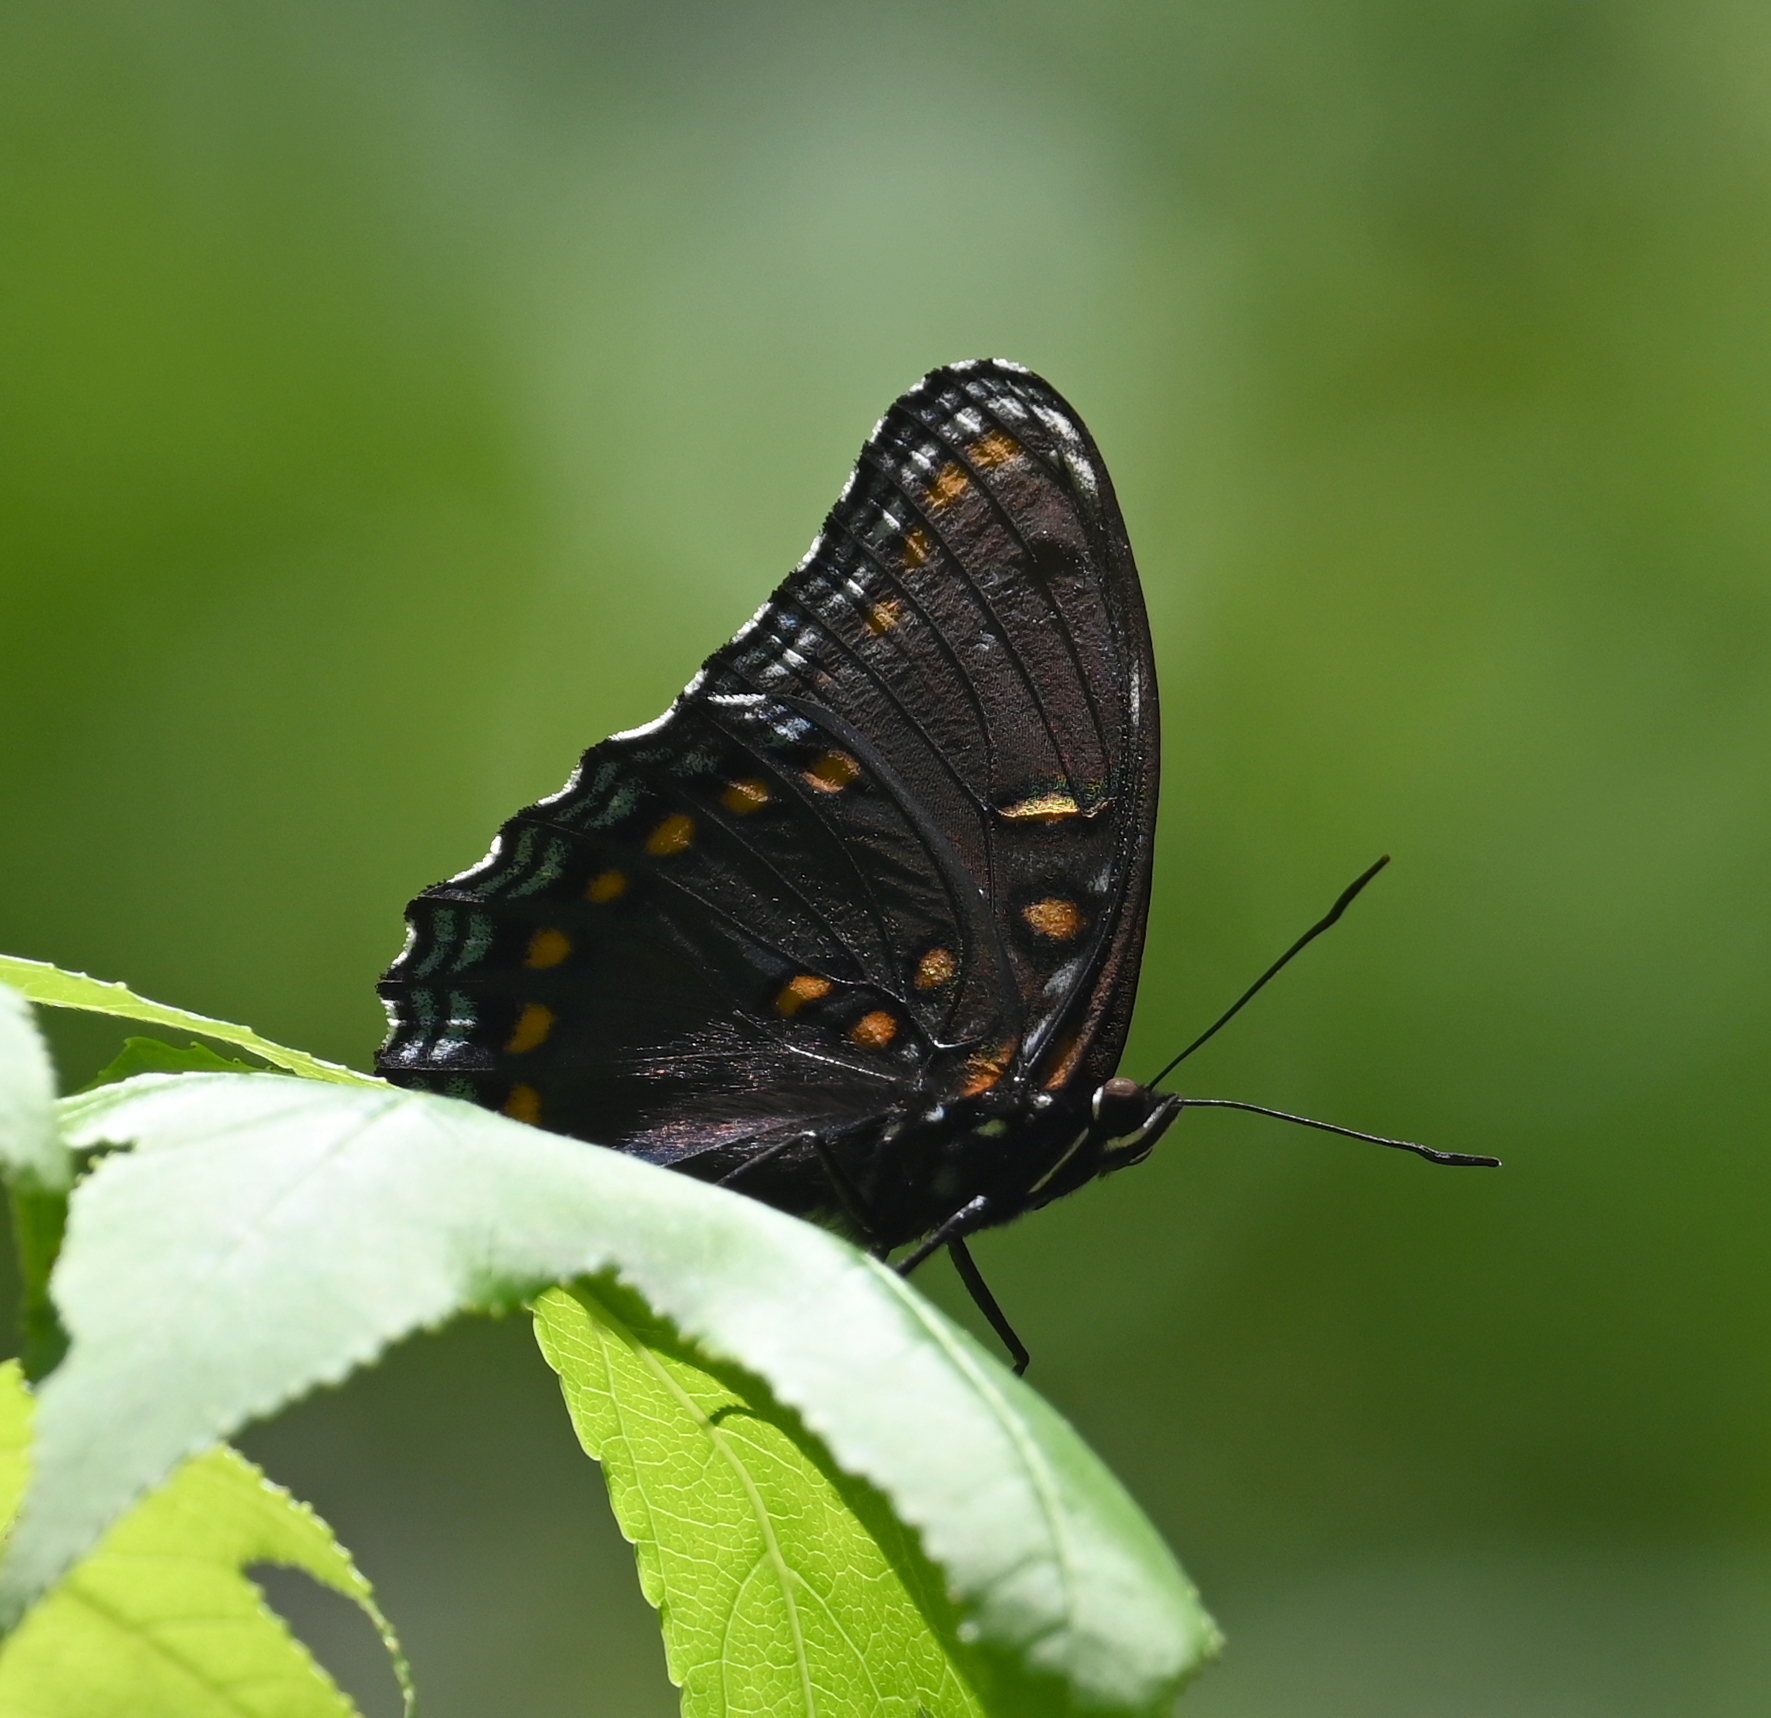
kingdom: Animalia
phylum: Arthropoda
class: Insecta
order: Lepidoptera
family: Nymphalidae
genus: Limenitis
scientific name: Limenitis arthemis
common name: Red-spotted admiral
